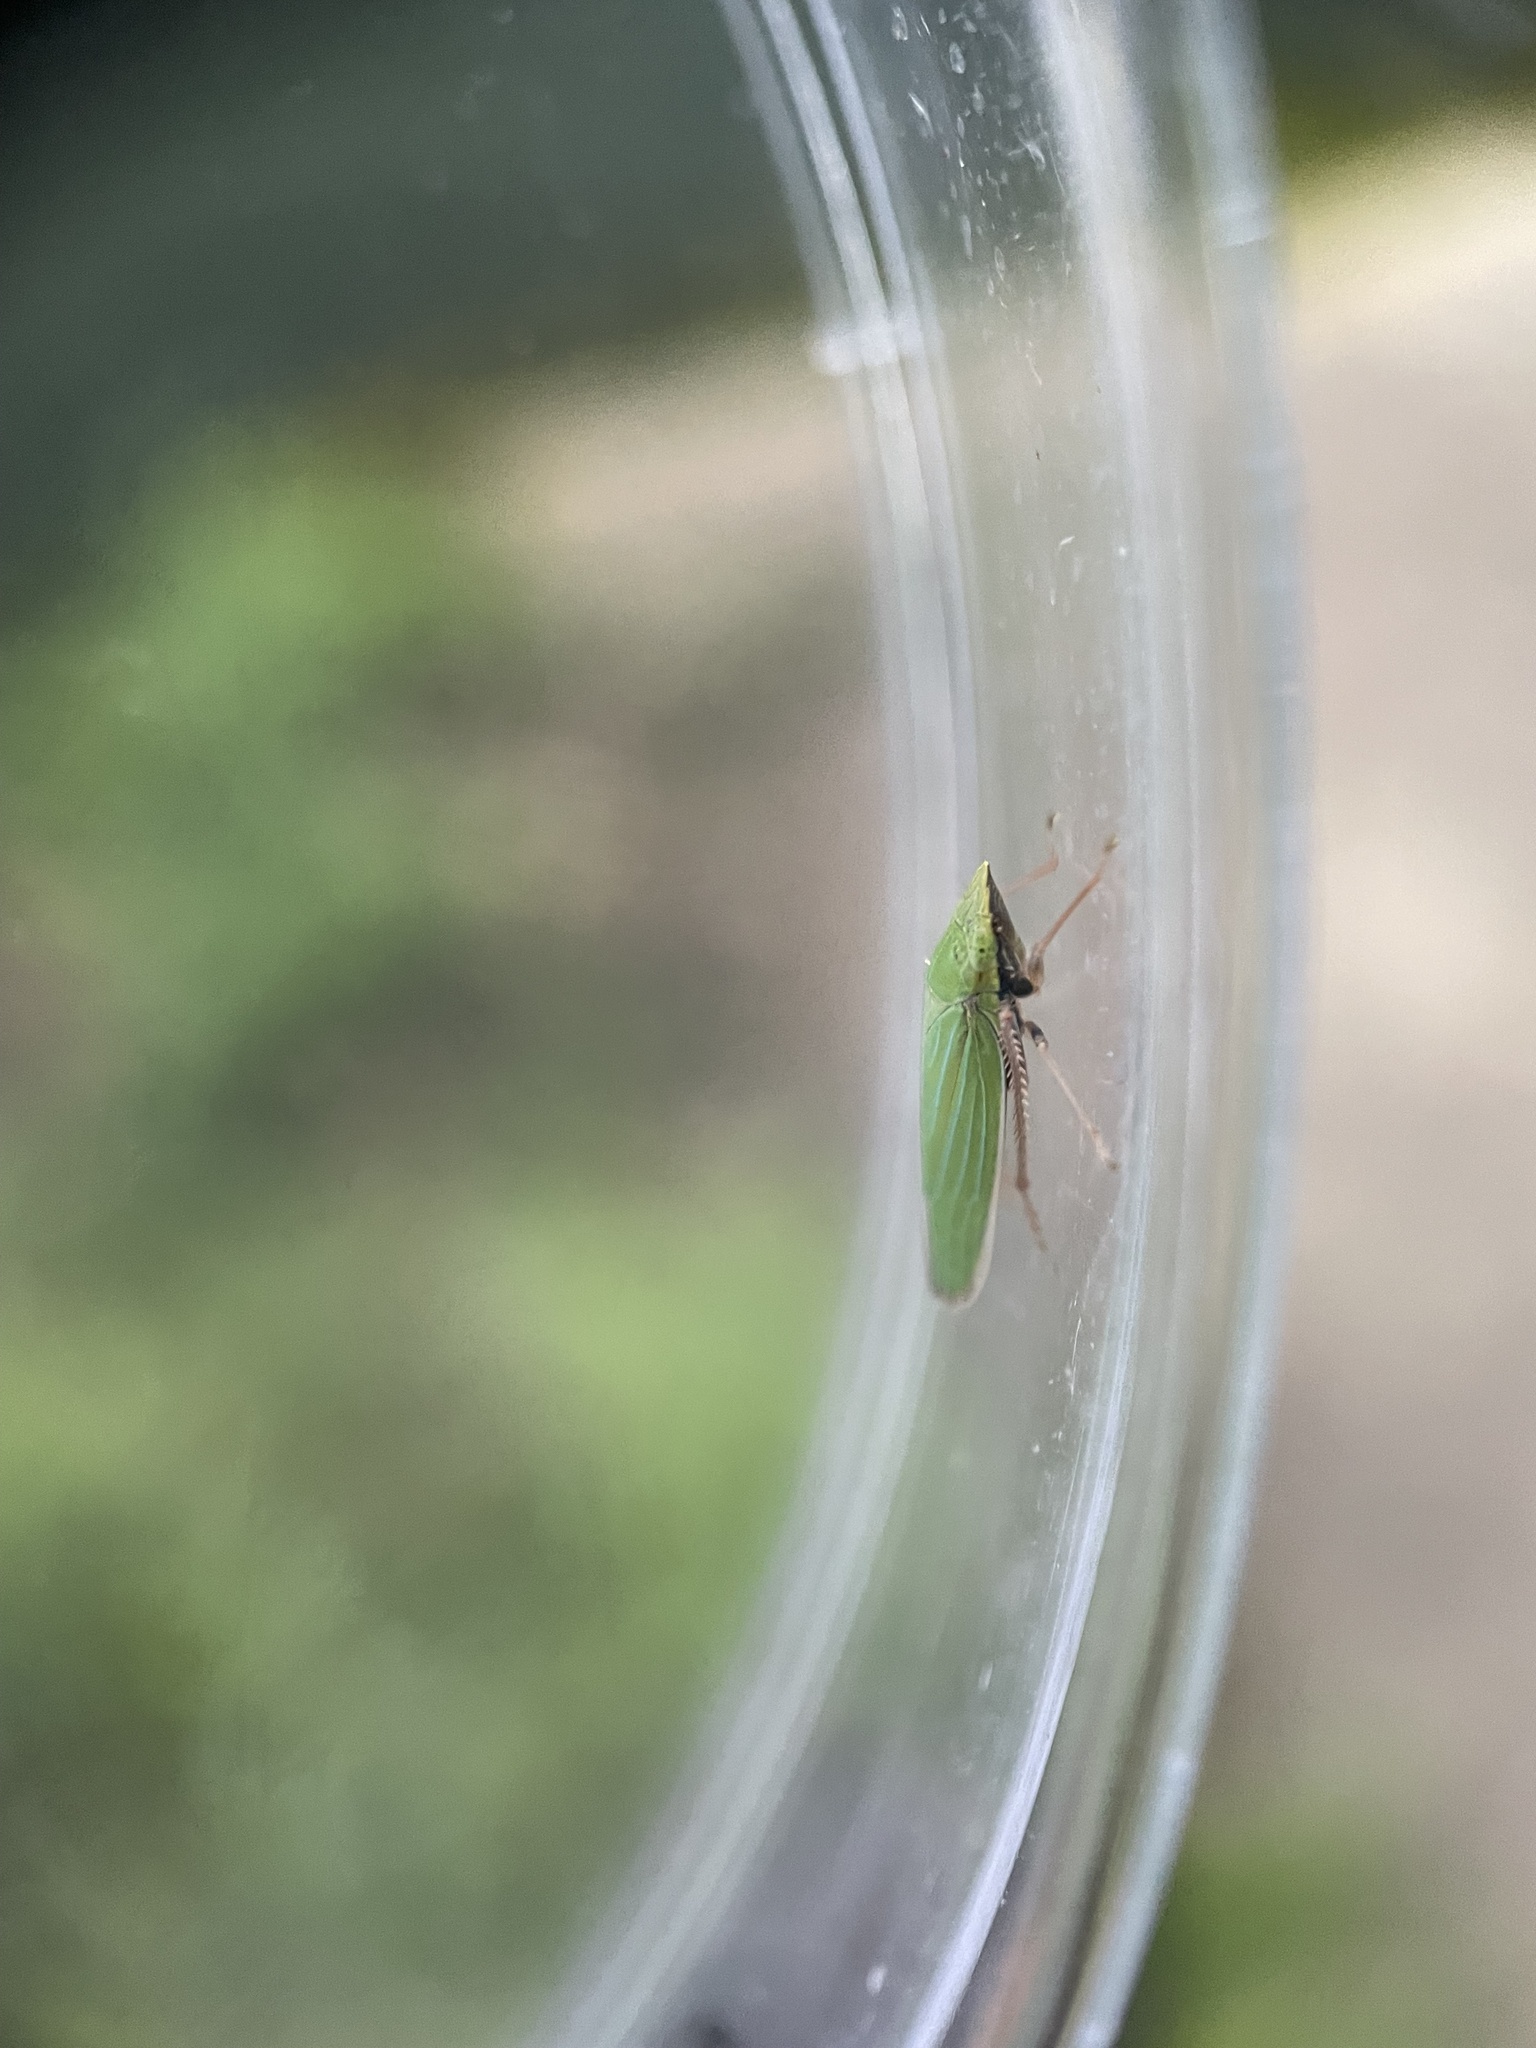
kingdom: Animalia
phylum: Arthropoda
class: Insecta
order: Hemiptera
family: Cicadellidae
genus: Draeculacephala
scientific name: Draeculacephala robinsoni
